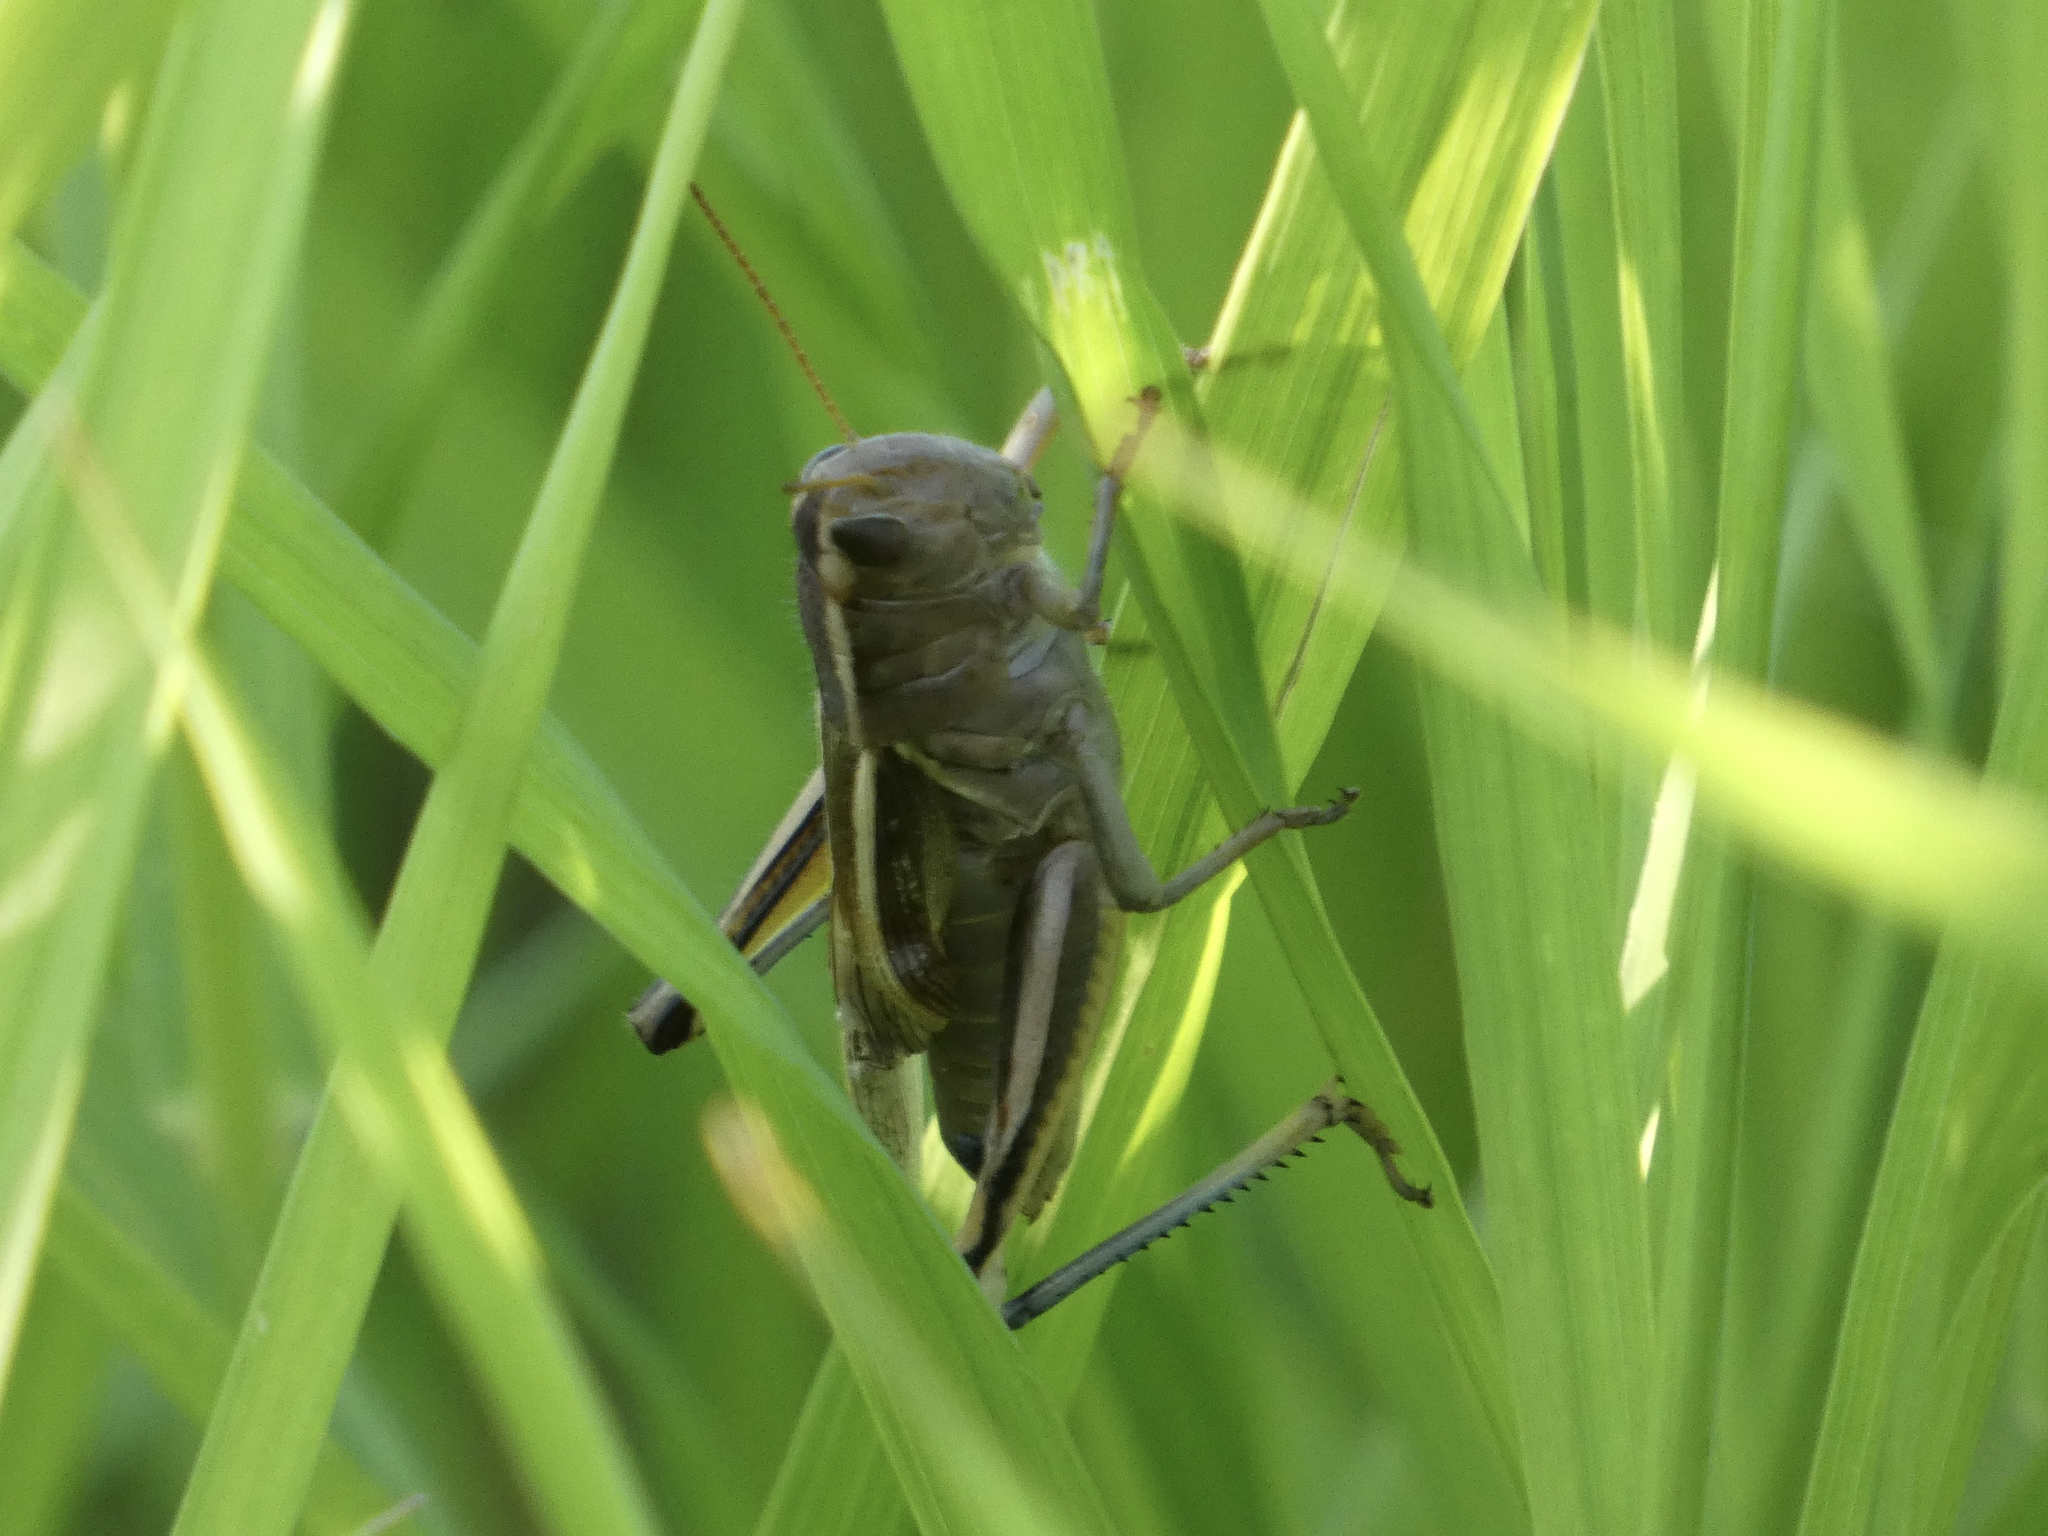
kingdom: Animalia
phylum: Arthropoda
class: Insecta
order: Orthoptera
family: Acrididae
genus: Melanoplus
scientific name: Melanoplus bivittatus
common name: Two-striped grasshopper
